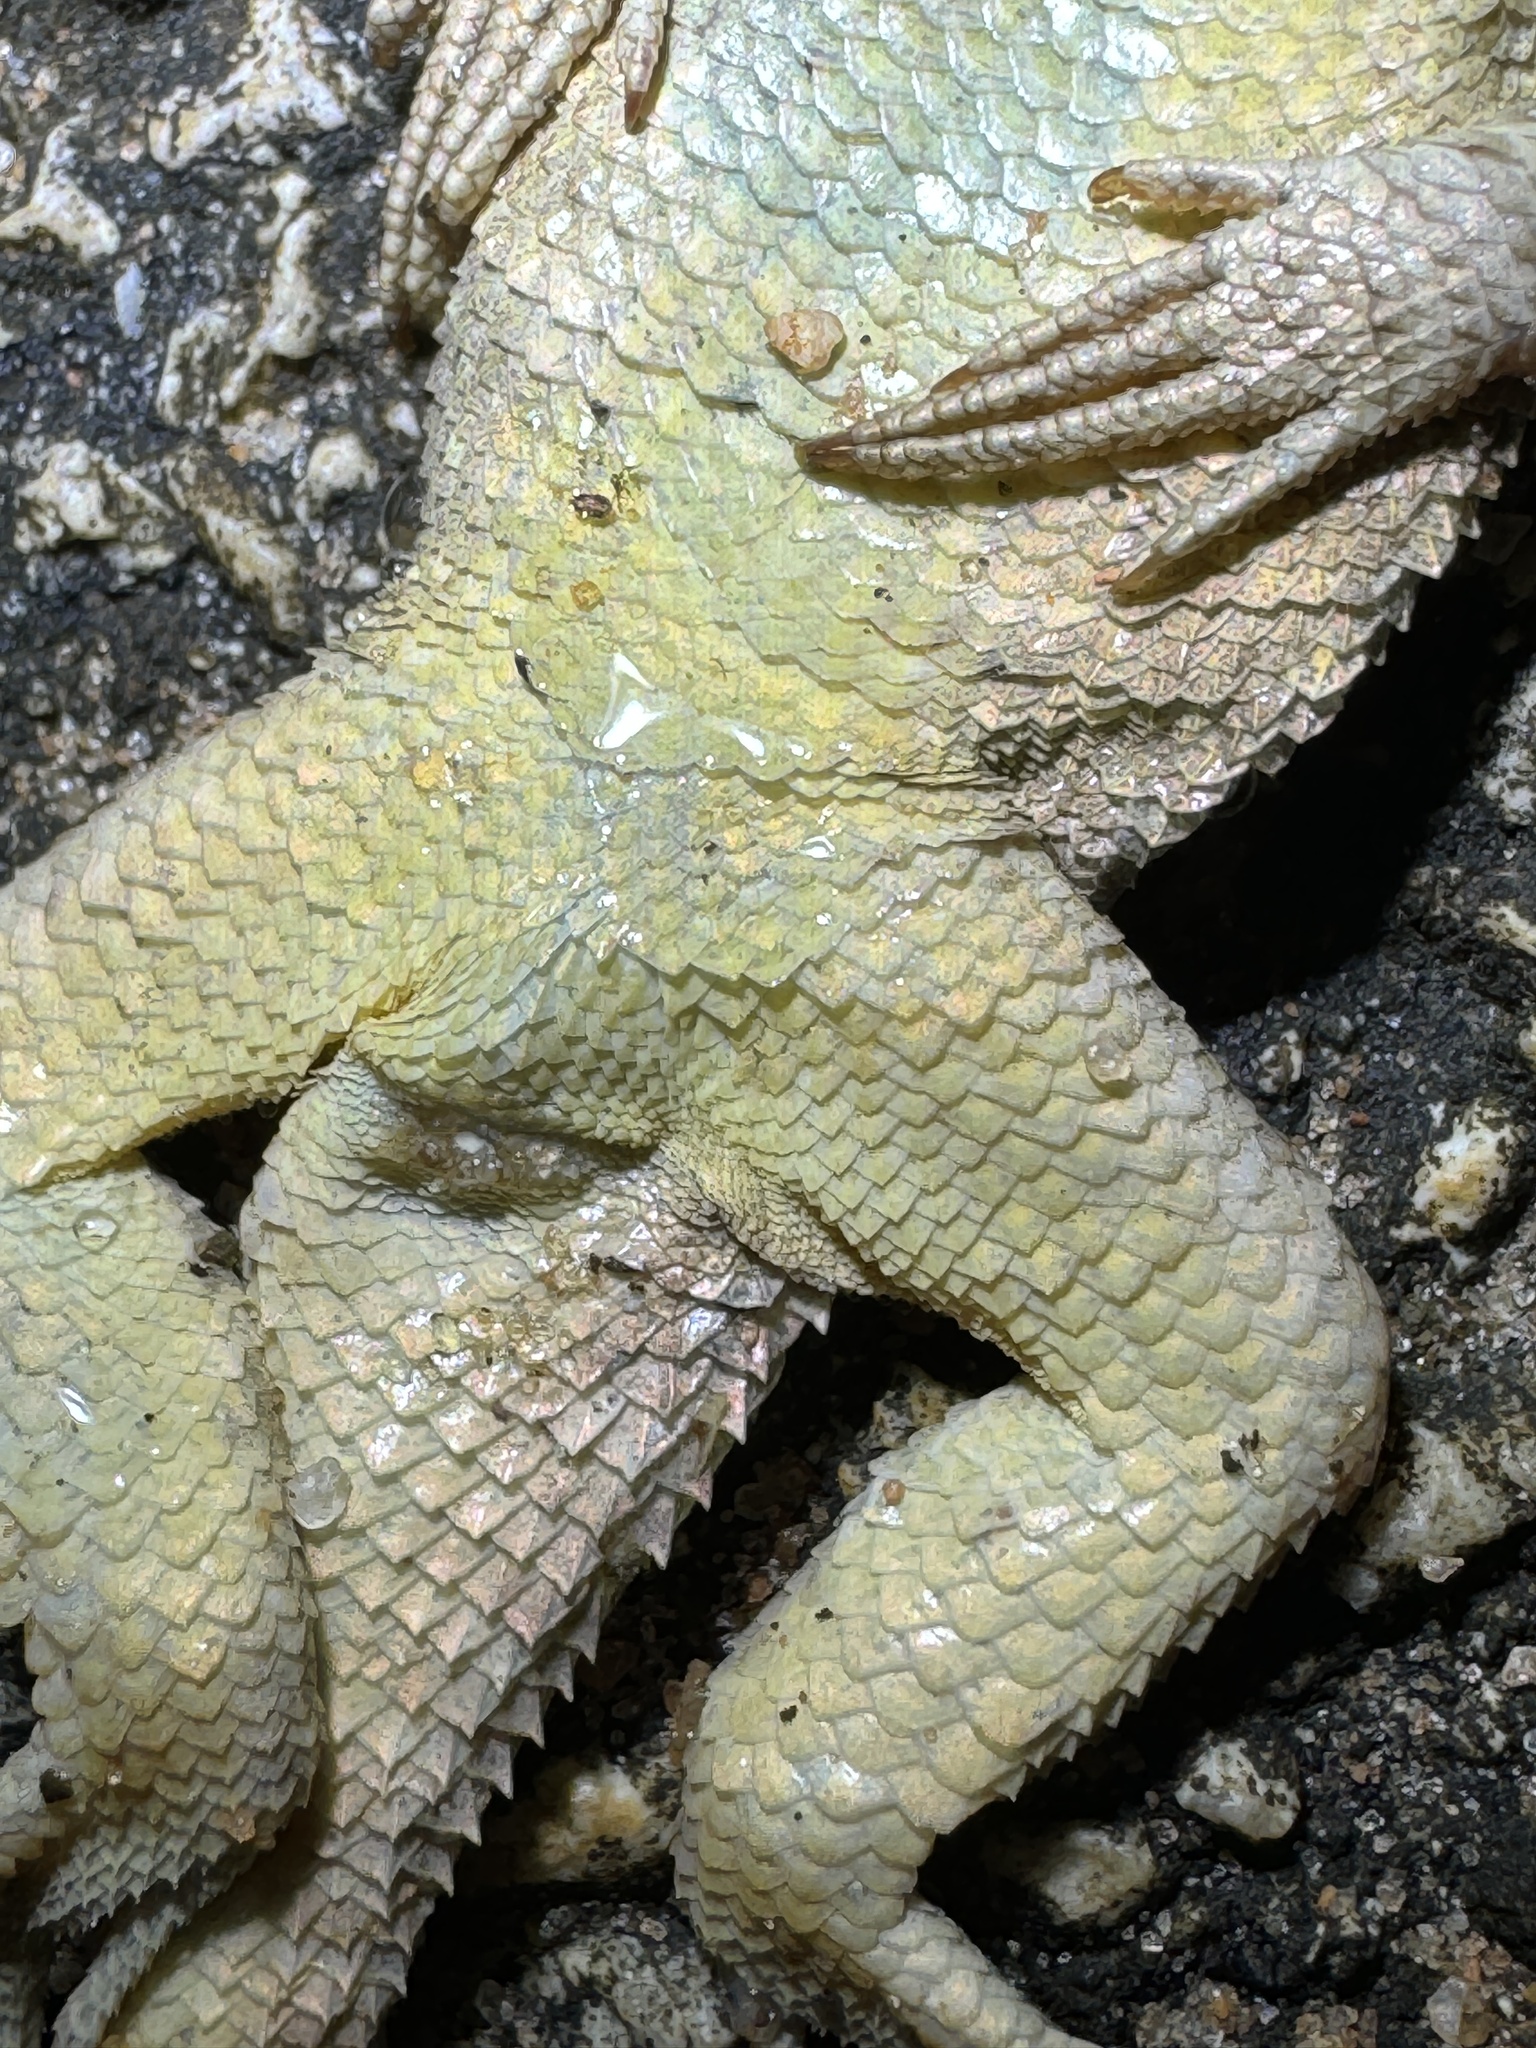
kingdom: Animalia
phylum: Chordata
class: Squamata
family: Leiocephalidae
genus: Leiocephalus
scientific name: Leiocephalus carinatus
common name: Northern curly-tailed lizard
